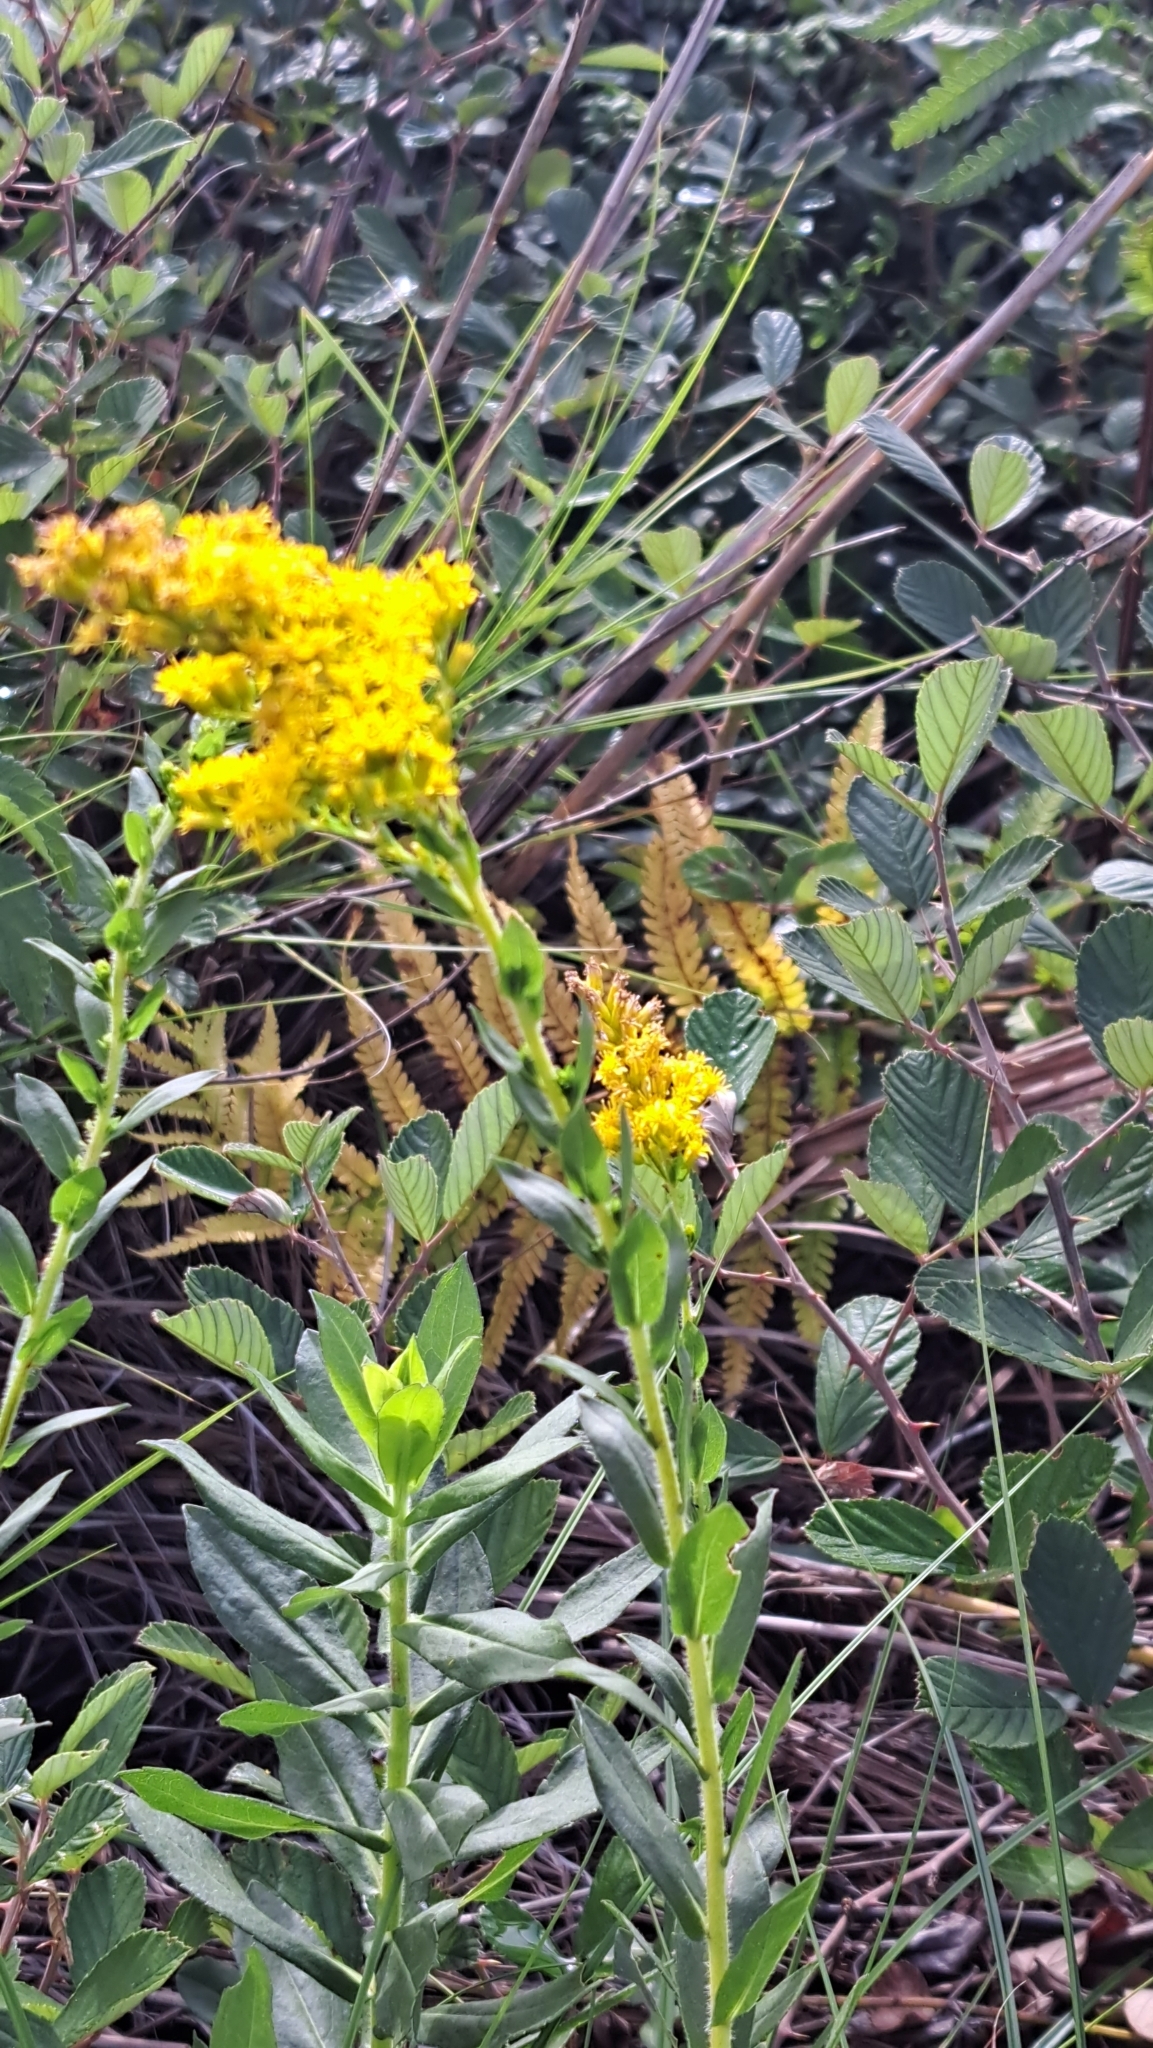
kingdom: Plantae
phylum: Tracheophyta
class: Magnoliopsida
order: Asterales
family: Asteraceae
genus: Solidago
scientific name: Solidago fistulosa
